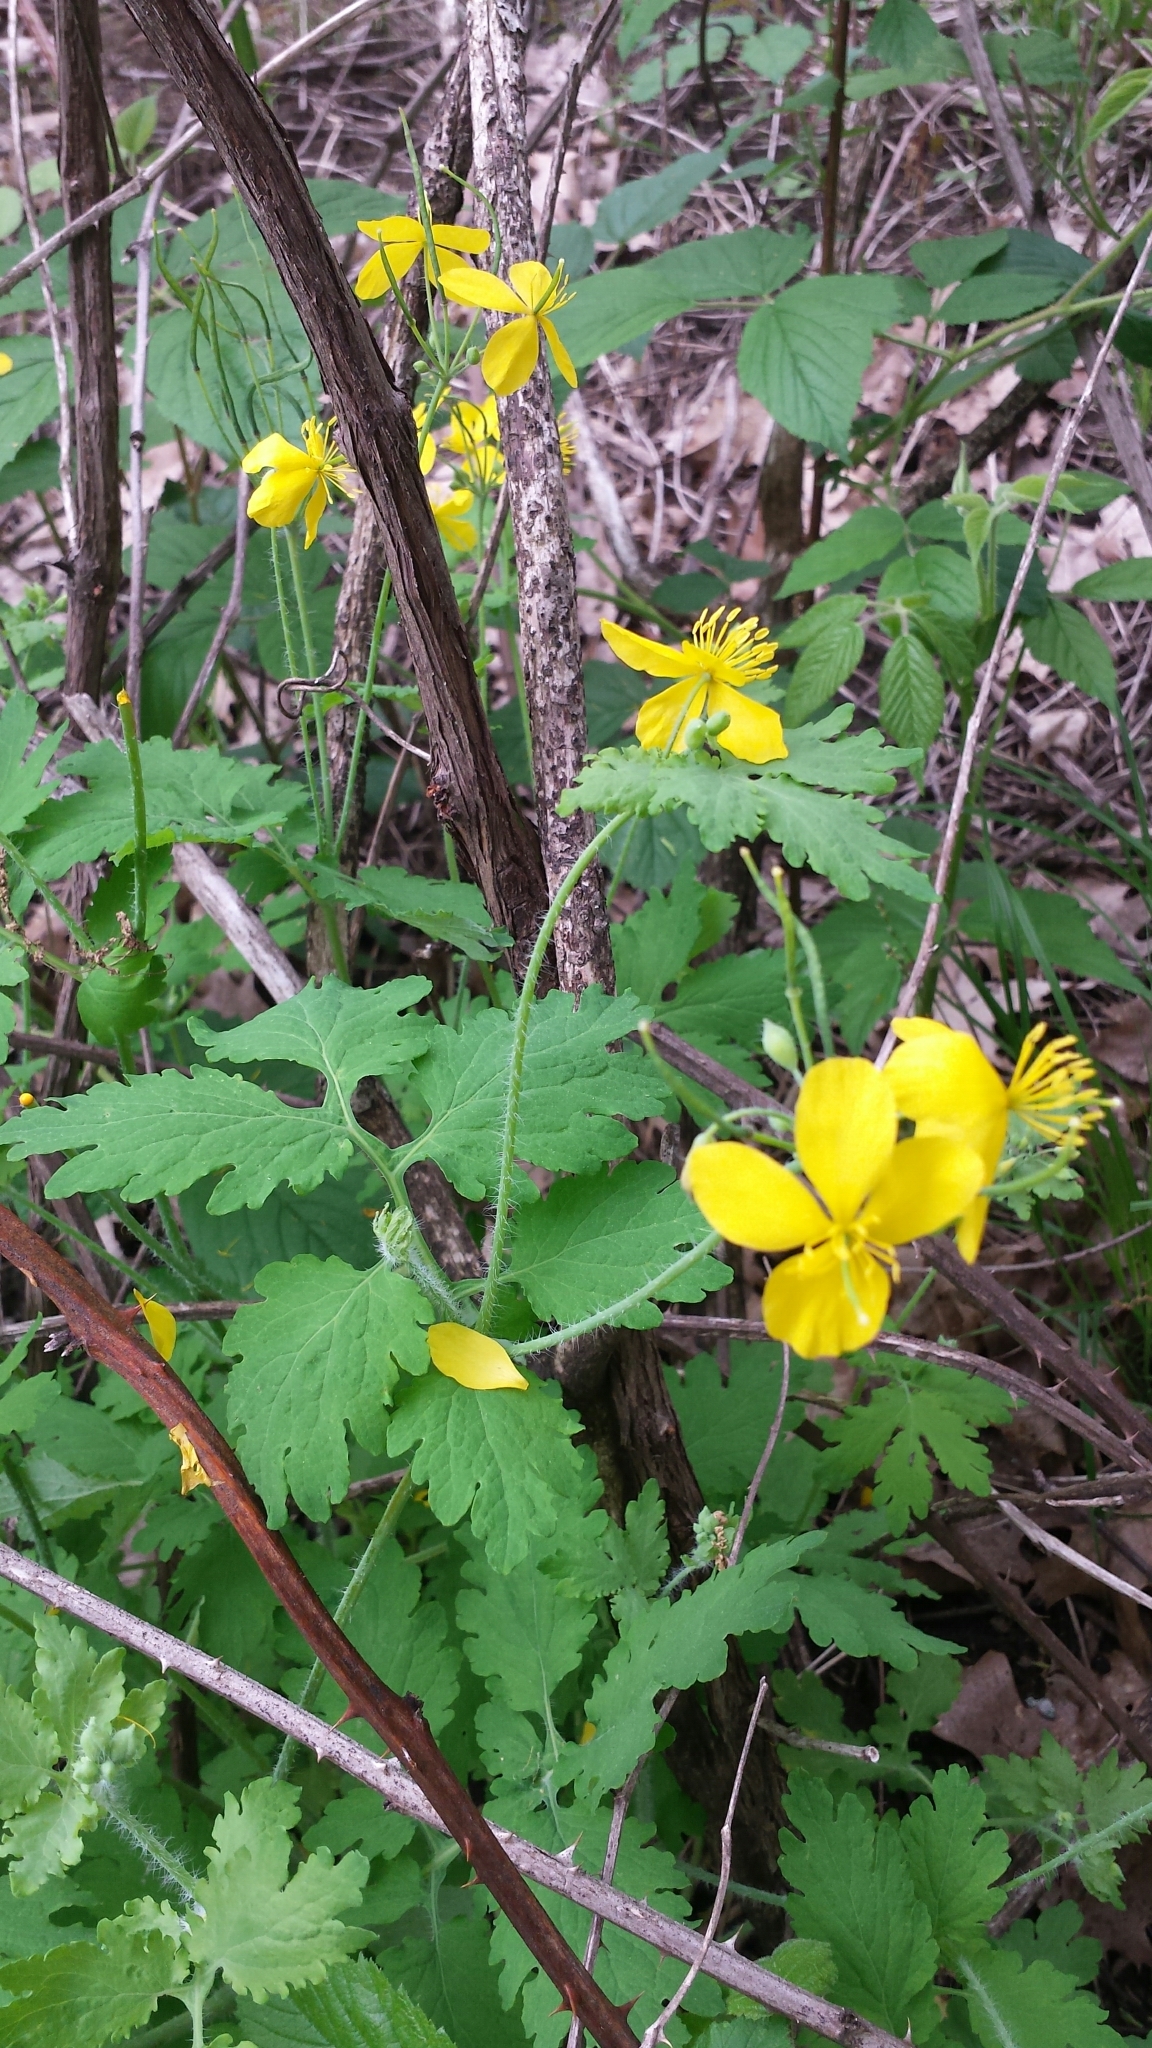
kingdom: Plantae
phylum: Tracheophyta
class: Magnoliopsida
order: Ranunculales
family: Papaveraceae
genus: Chelidonium
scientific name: Chelidonium majus
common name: Greater celandine
